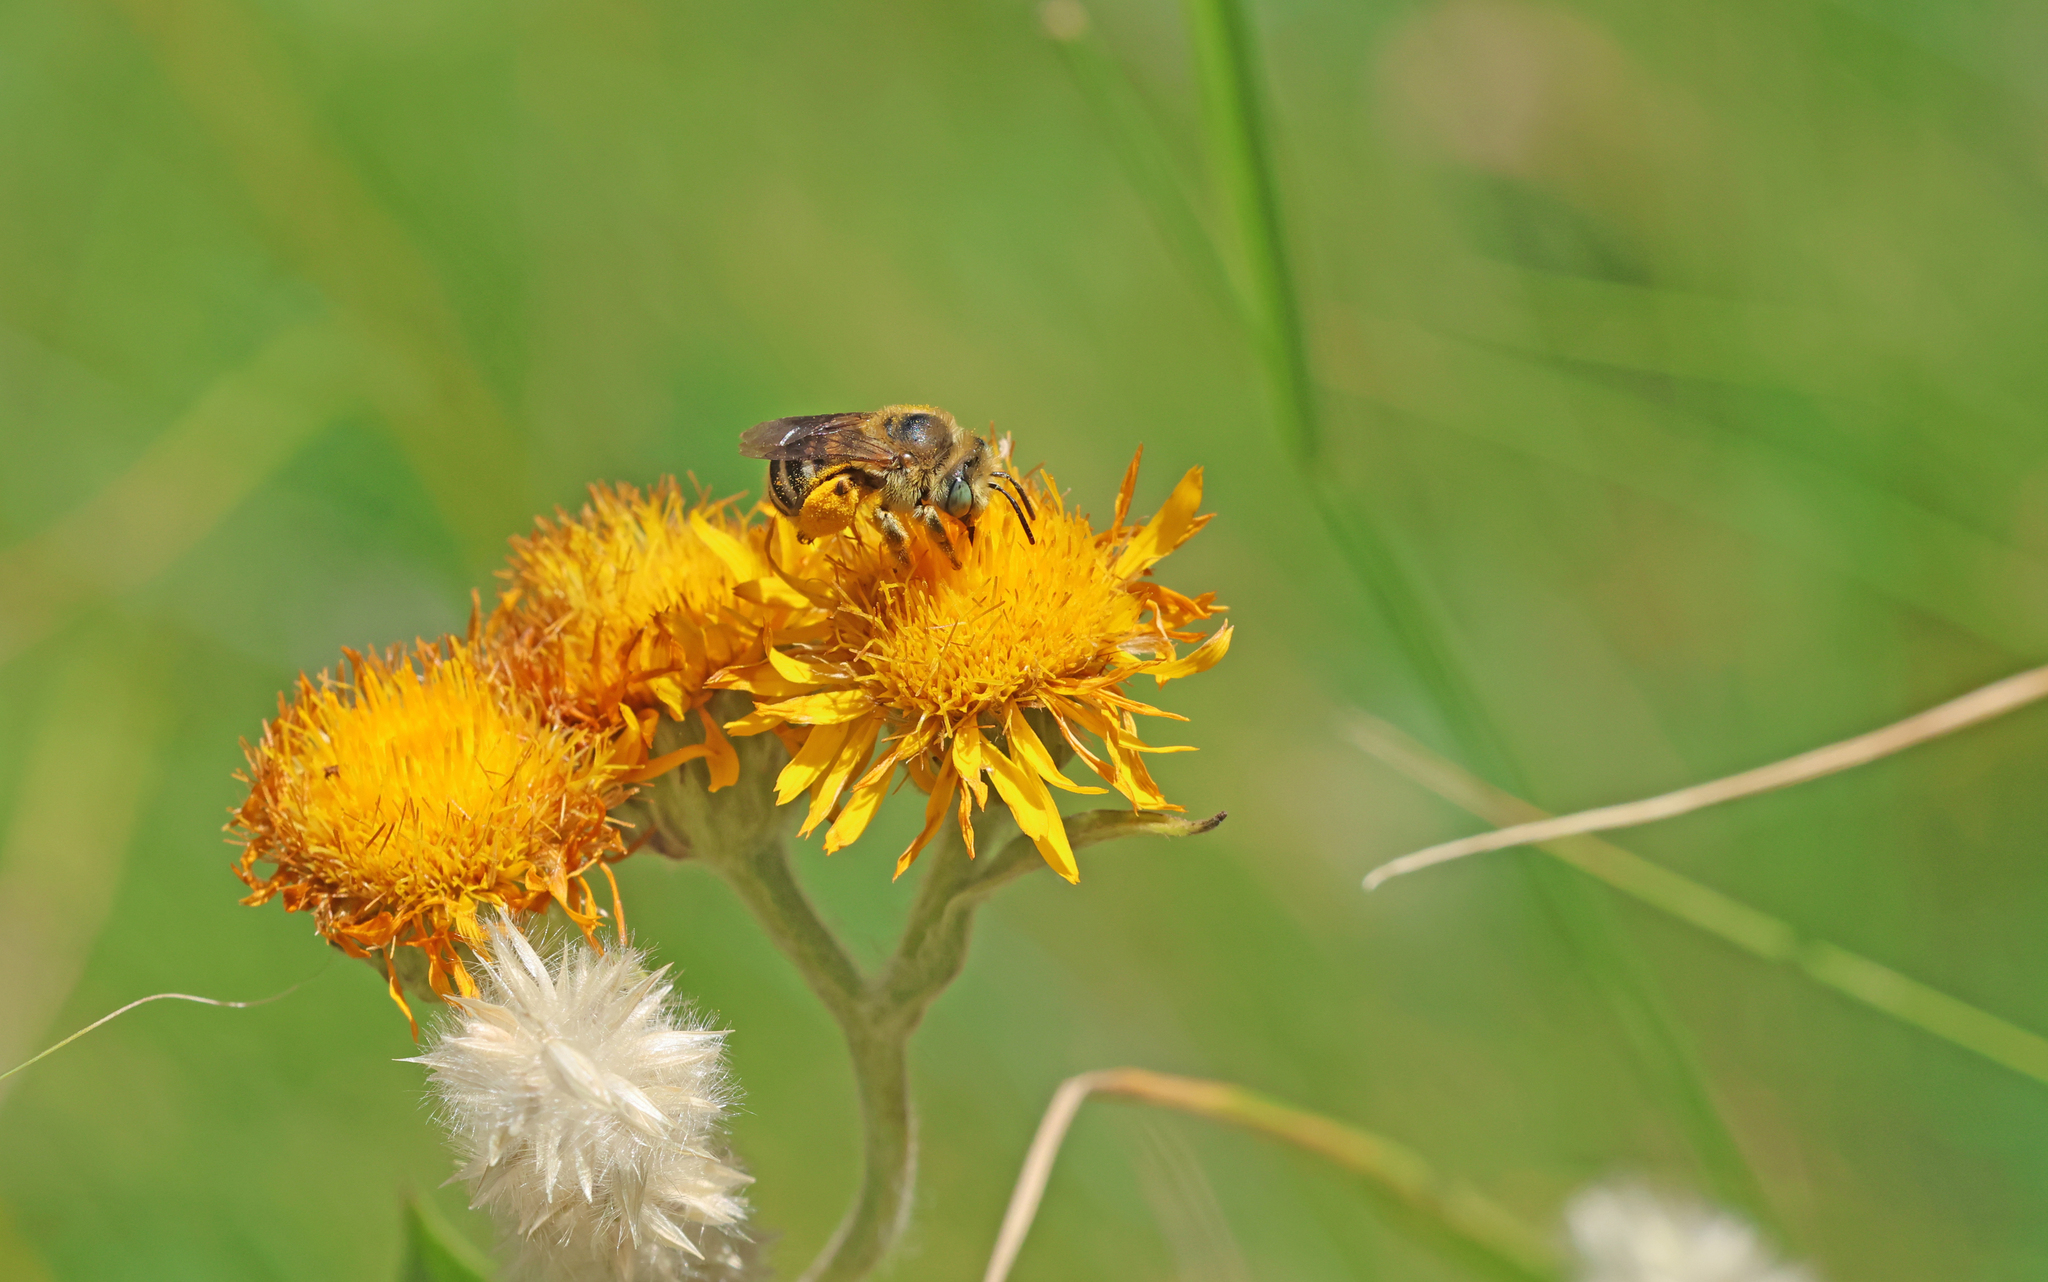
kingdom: Animalia
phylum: Arthropoda
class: Insecta
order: Hymenoptera
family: Apidae
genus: Tetraloniella
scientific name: Tetraloniella fulvescens
